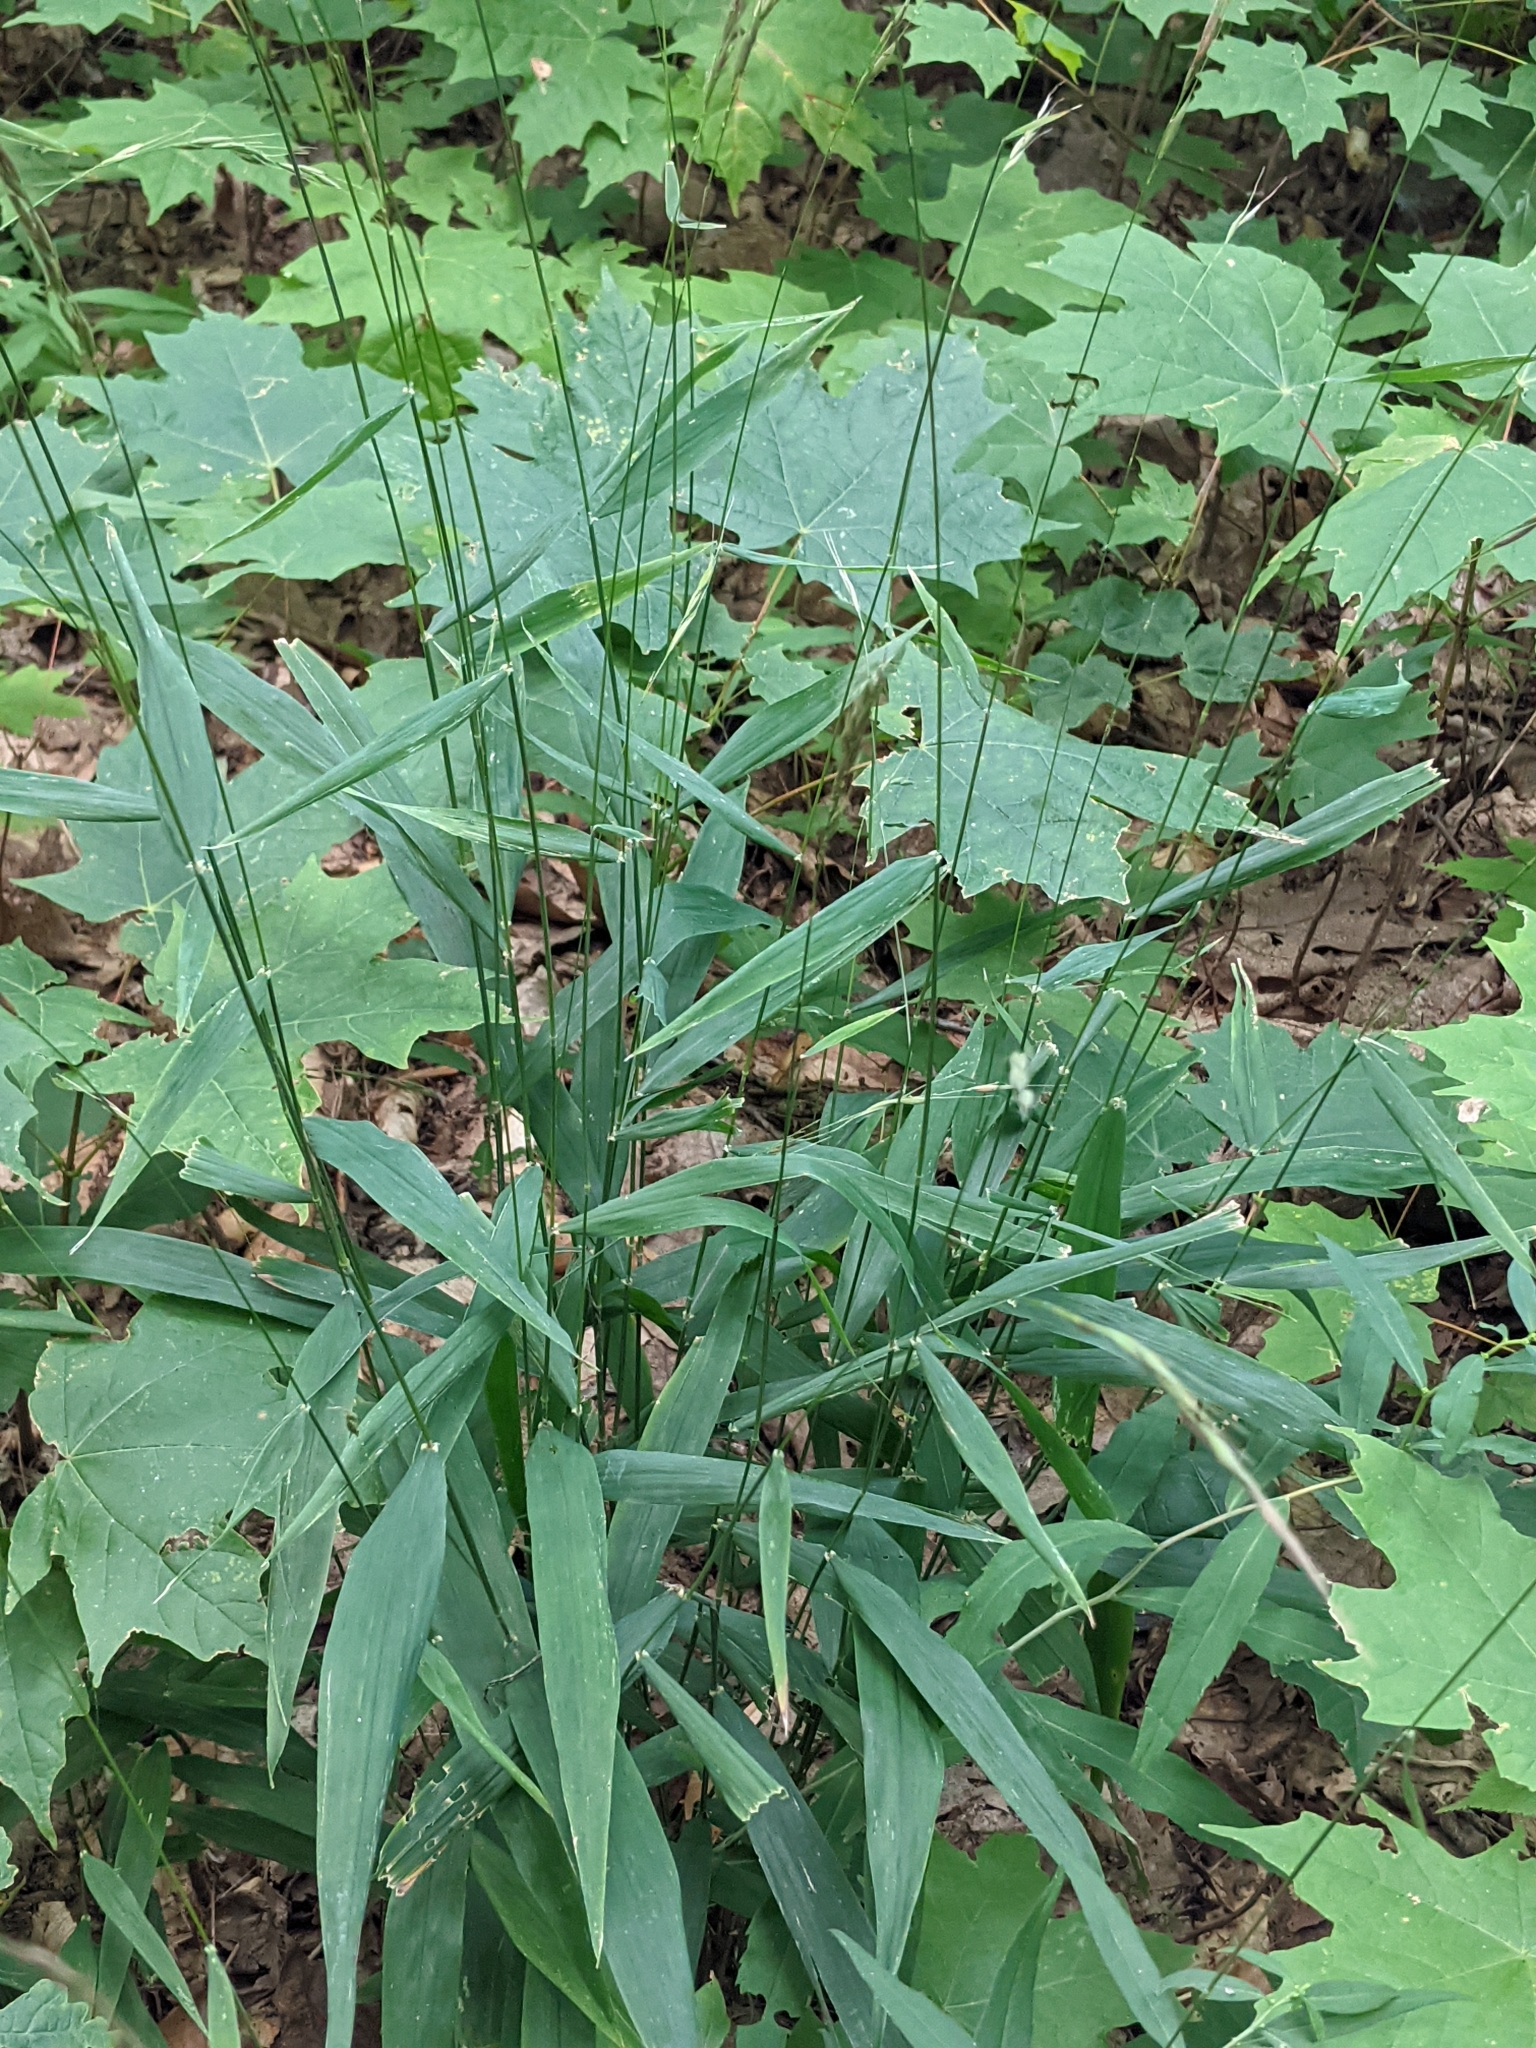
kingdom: Plantae
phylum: Tracheophyta
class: Liliopsida
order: Poales
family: Poaceae
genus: Brachyelytrum
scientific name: Brachyelytrum erectum
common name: Bearded shorthusk
